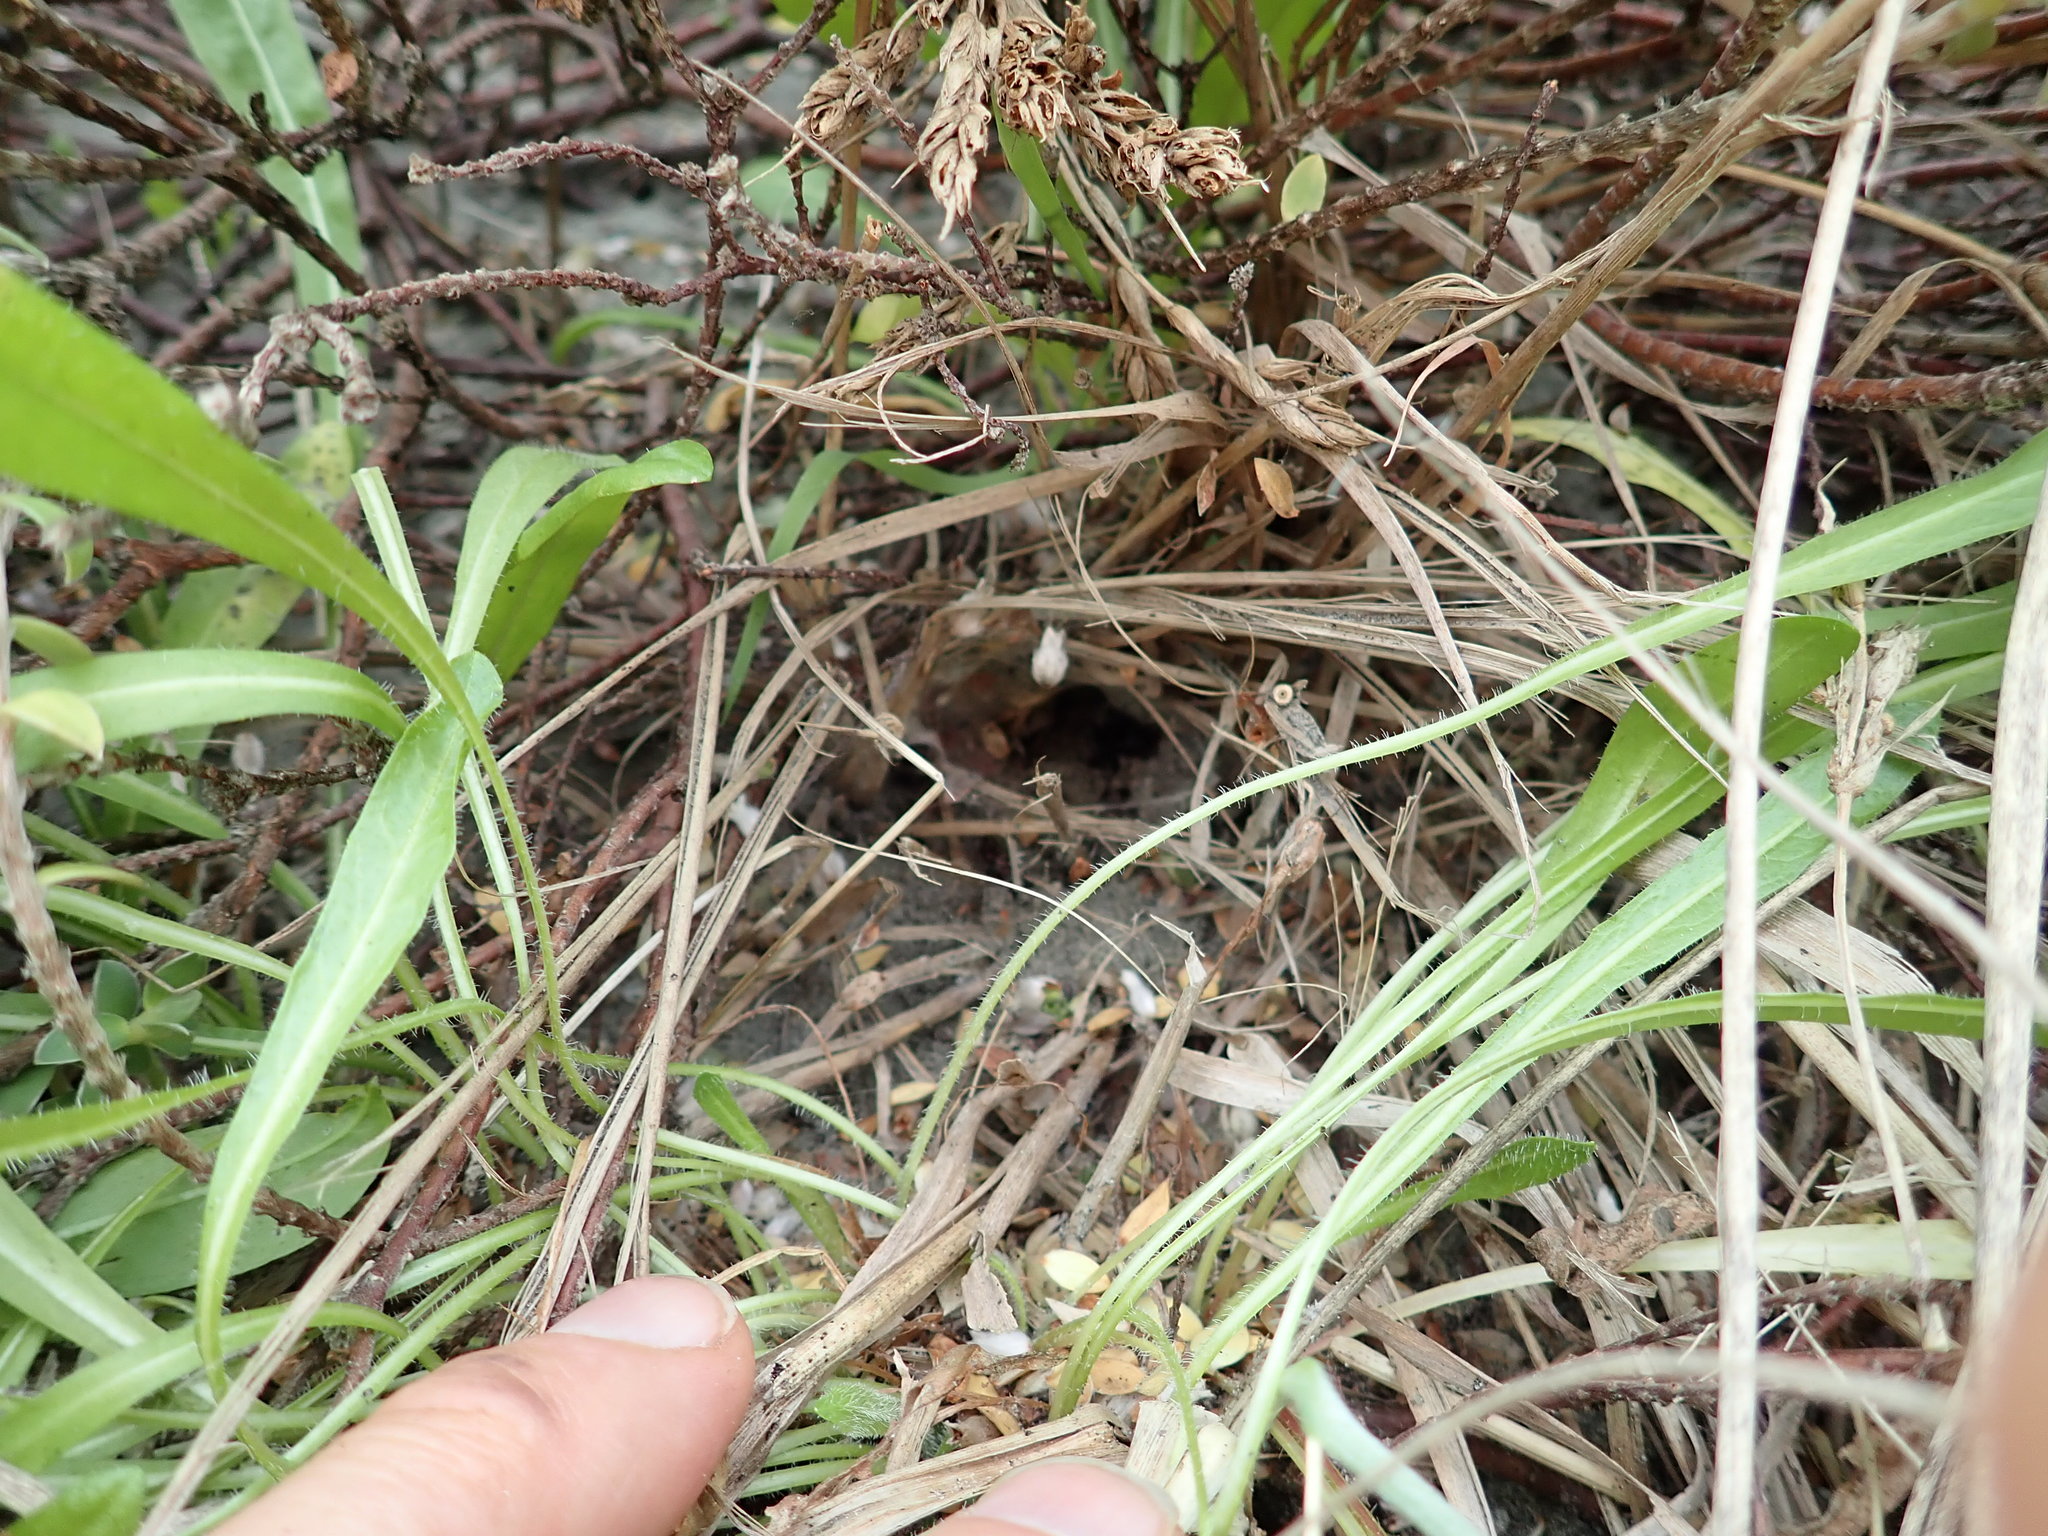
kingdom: Animalia
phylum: Arthropoda
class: Arachnida
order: Araneae
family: Theridiidae
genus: Latrodectus
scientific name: Latrodectus katipo
